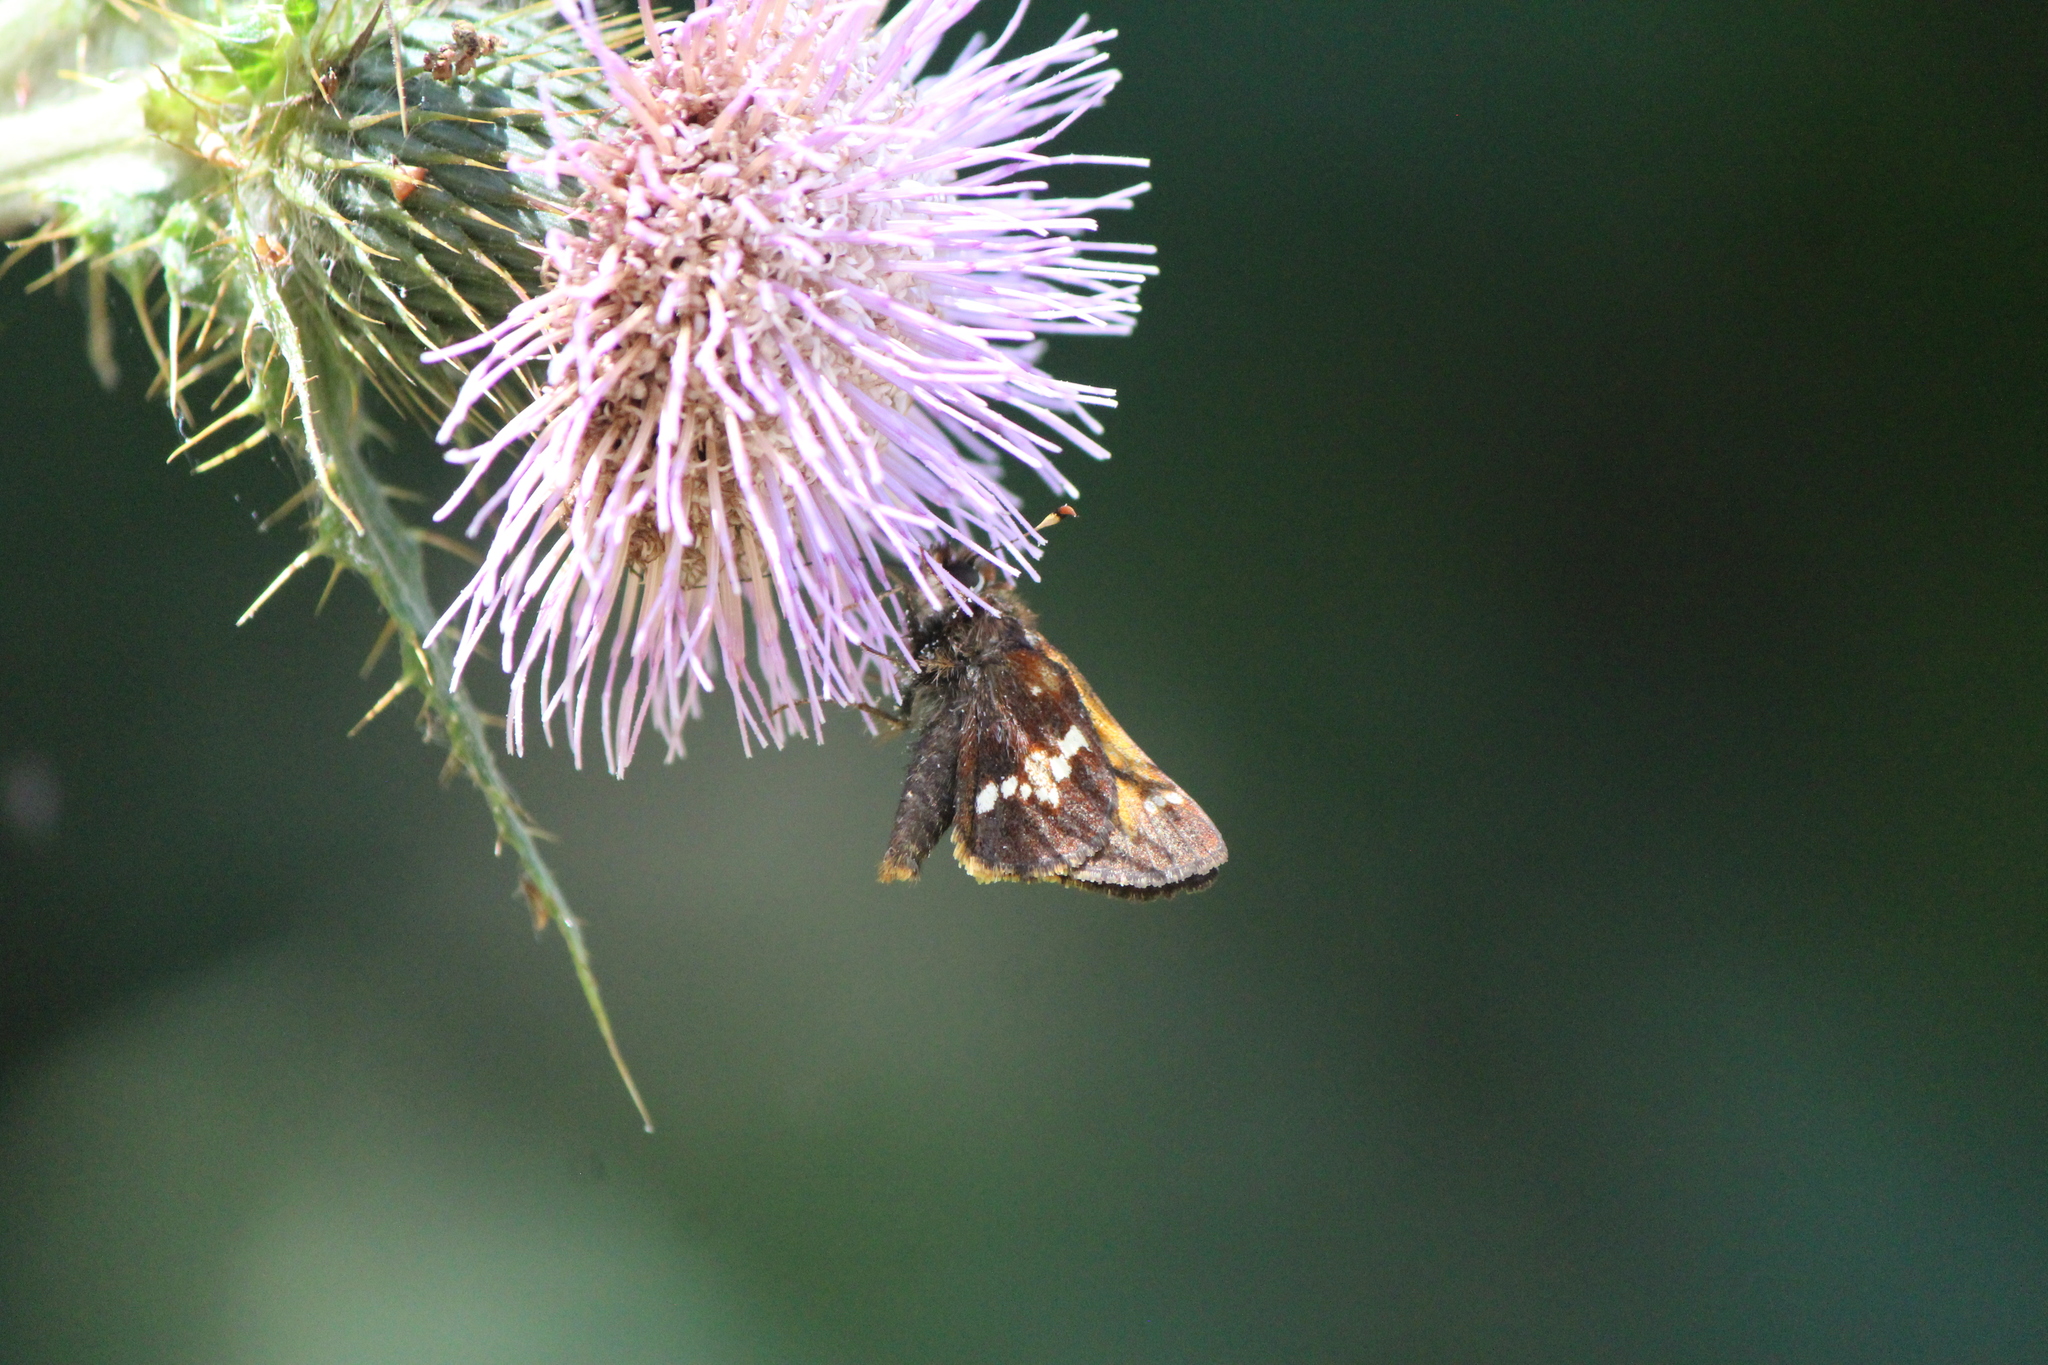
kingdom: Animalia
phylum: Arthropoda
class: Insecta
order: Lepidoptera
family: Hesperiidae
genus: Lon
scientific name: Lon monticola
